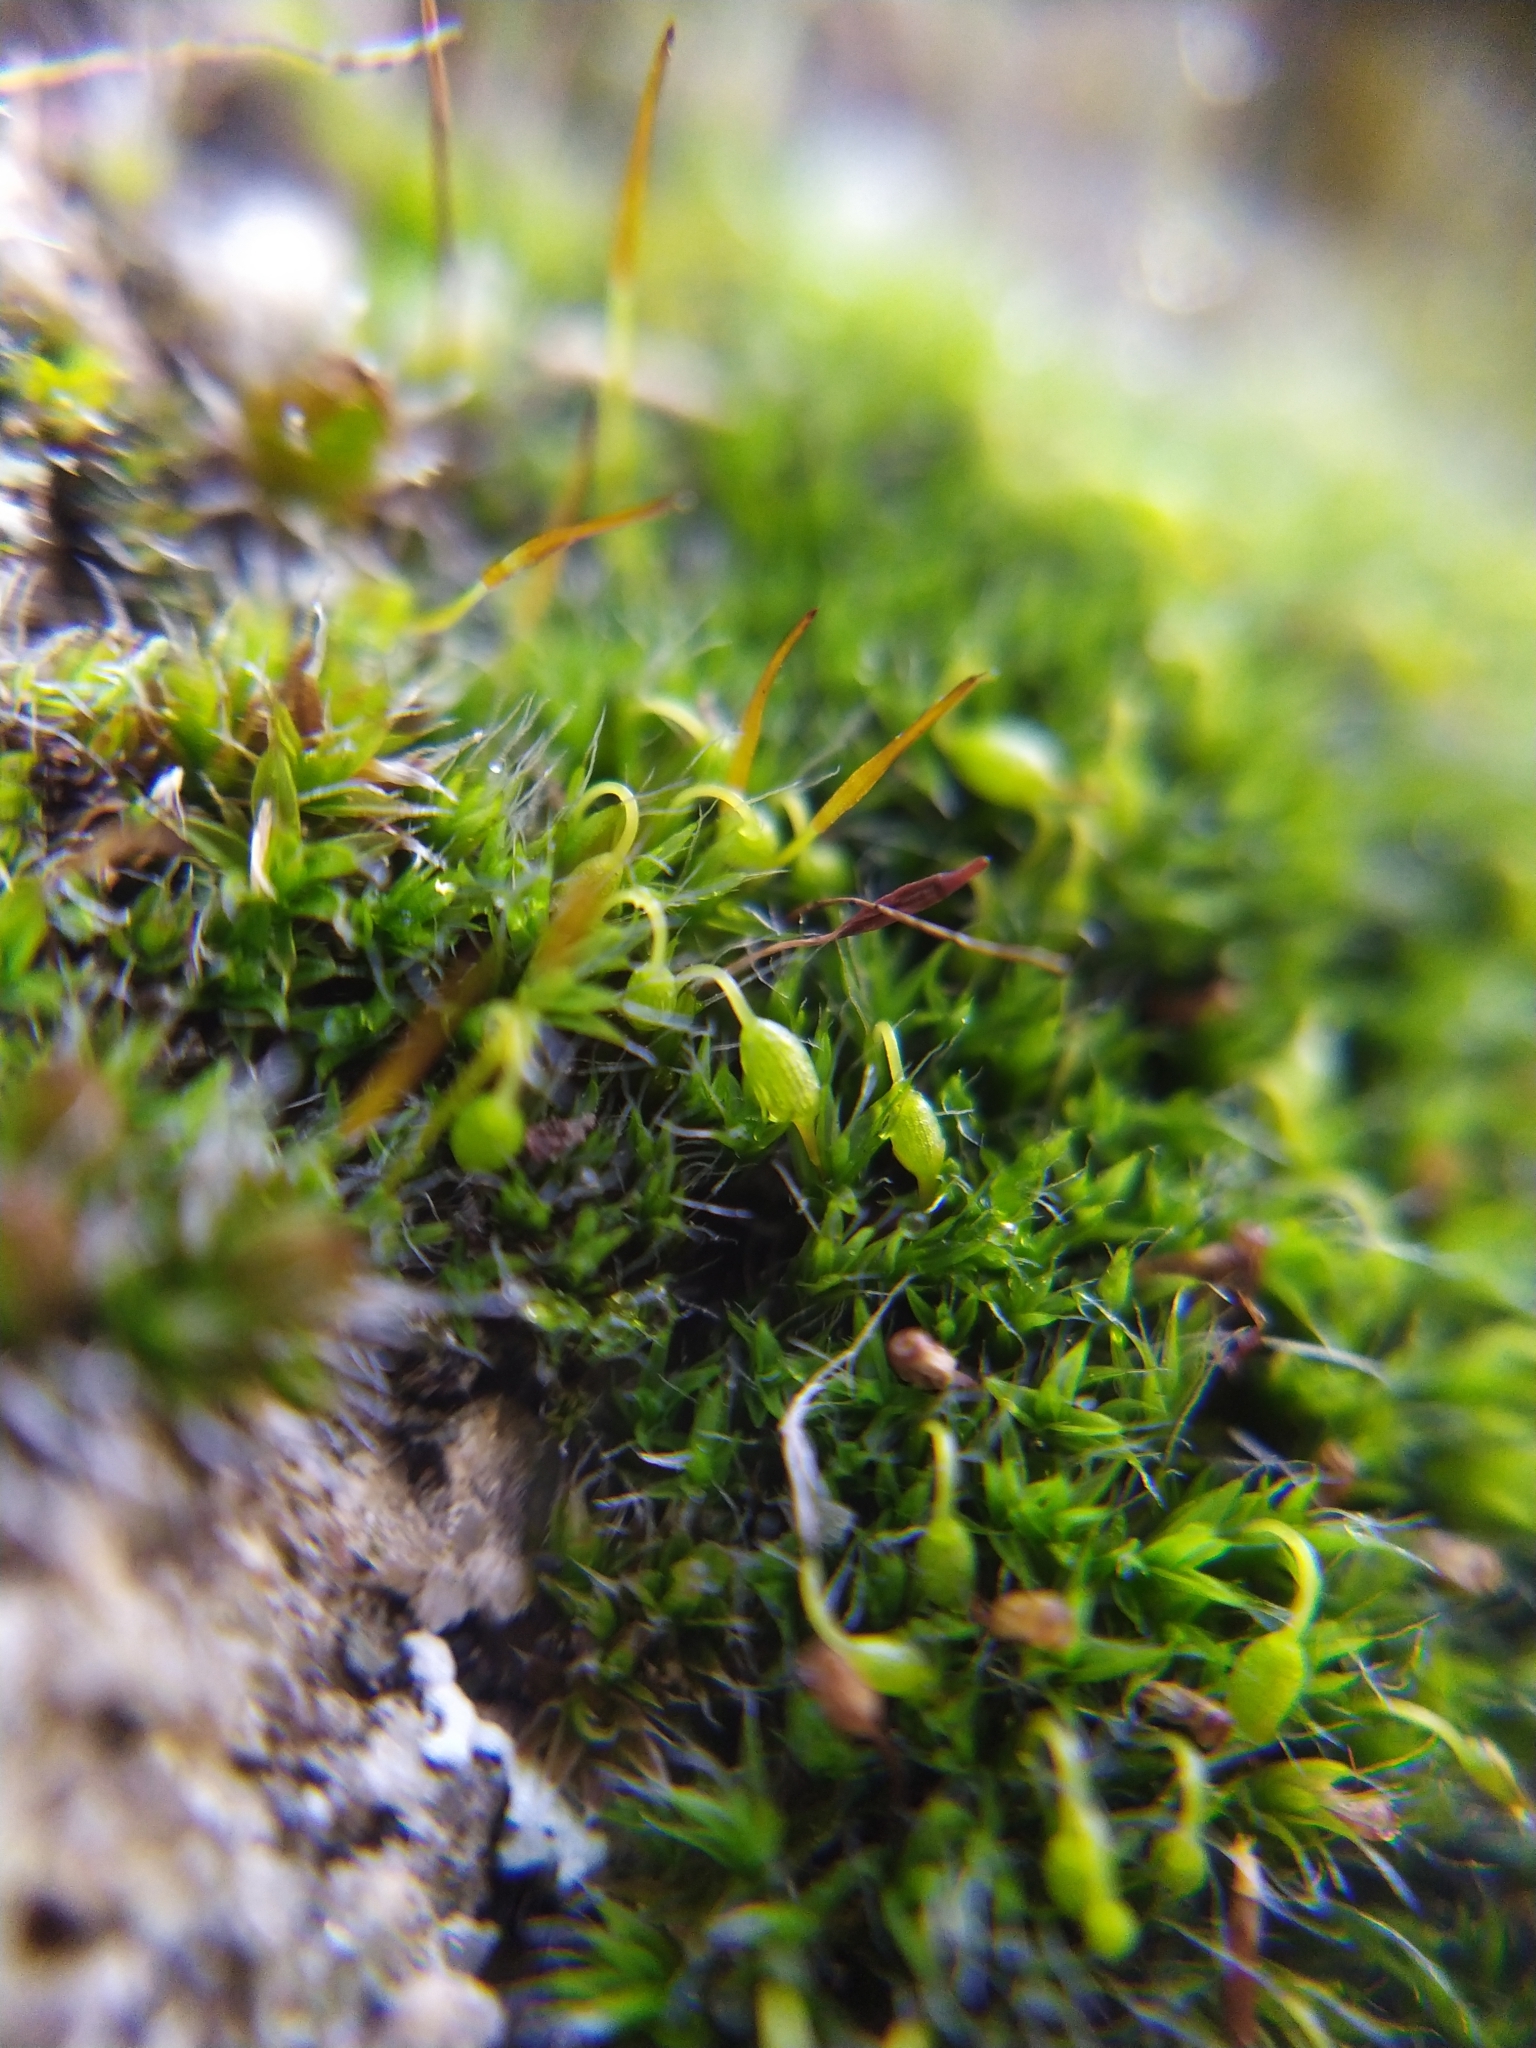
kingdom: Plantae
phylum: Bryophyta
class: Bryopsida
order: Grimmiales
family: Grimmiaceae
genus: Grimmia
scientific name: Grimmia pulvinata
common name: Grey-cushioned grimmia
